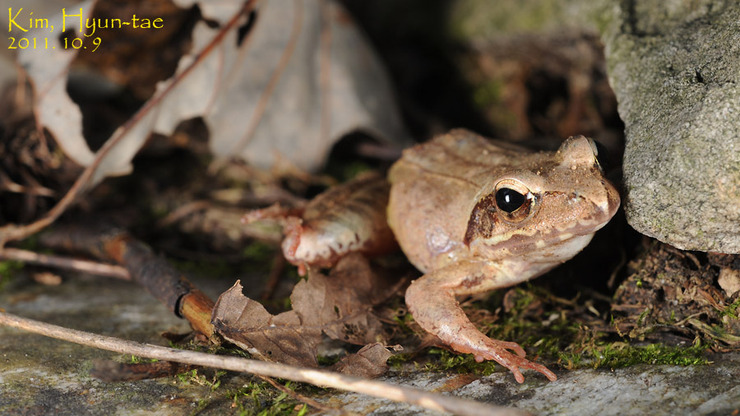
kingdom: Animalia
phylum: Chordata
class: Amphibia
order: Anura
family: Ranidae
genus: Rana
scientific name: Rana uenoi
